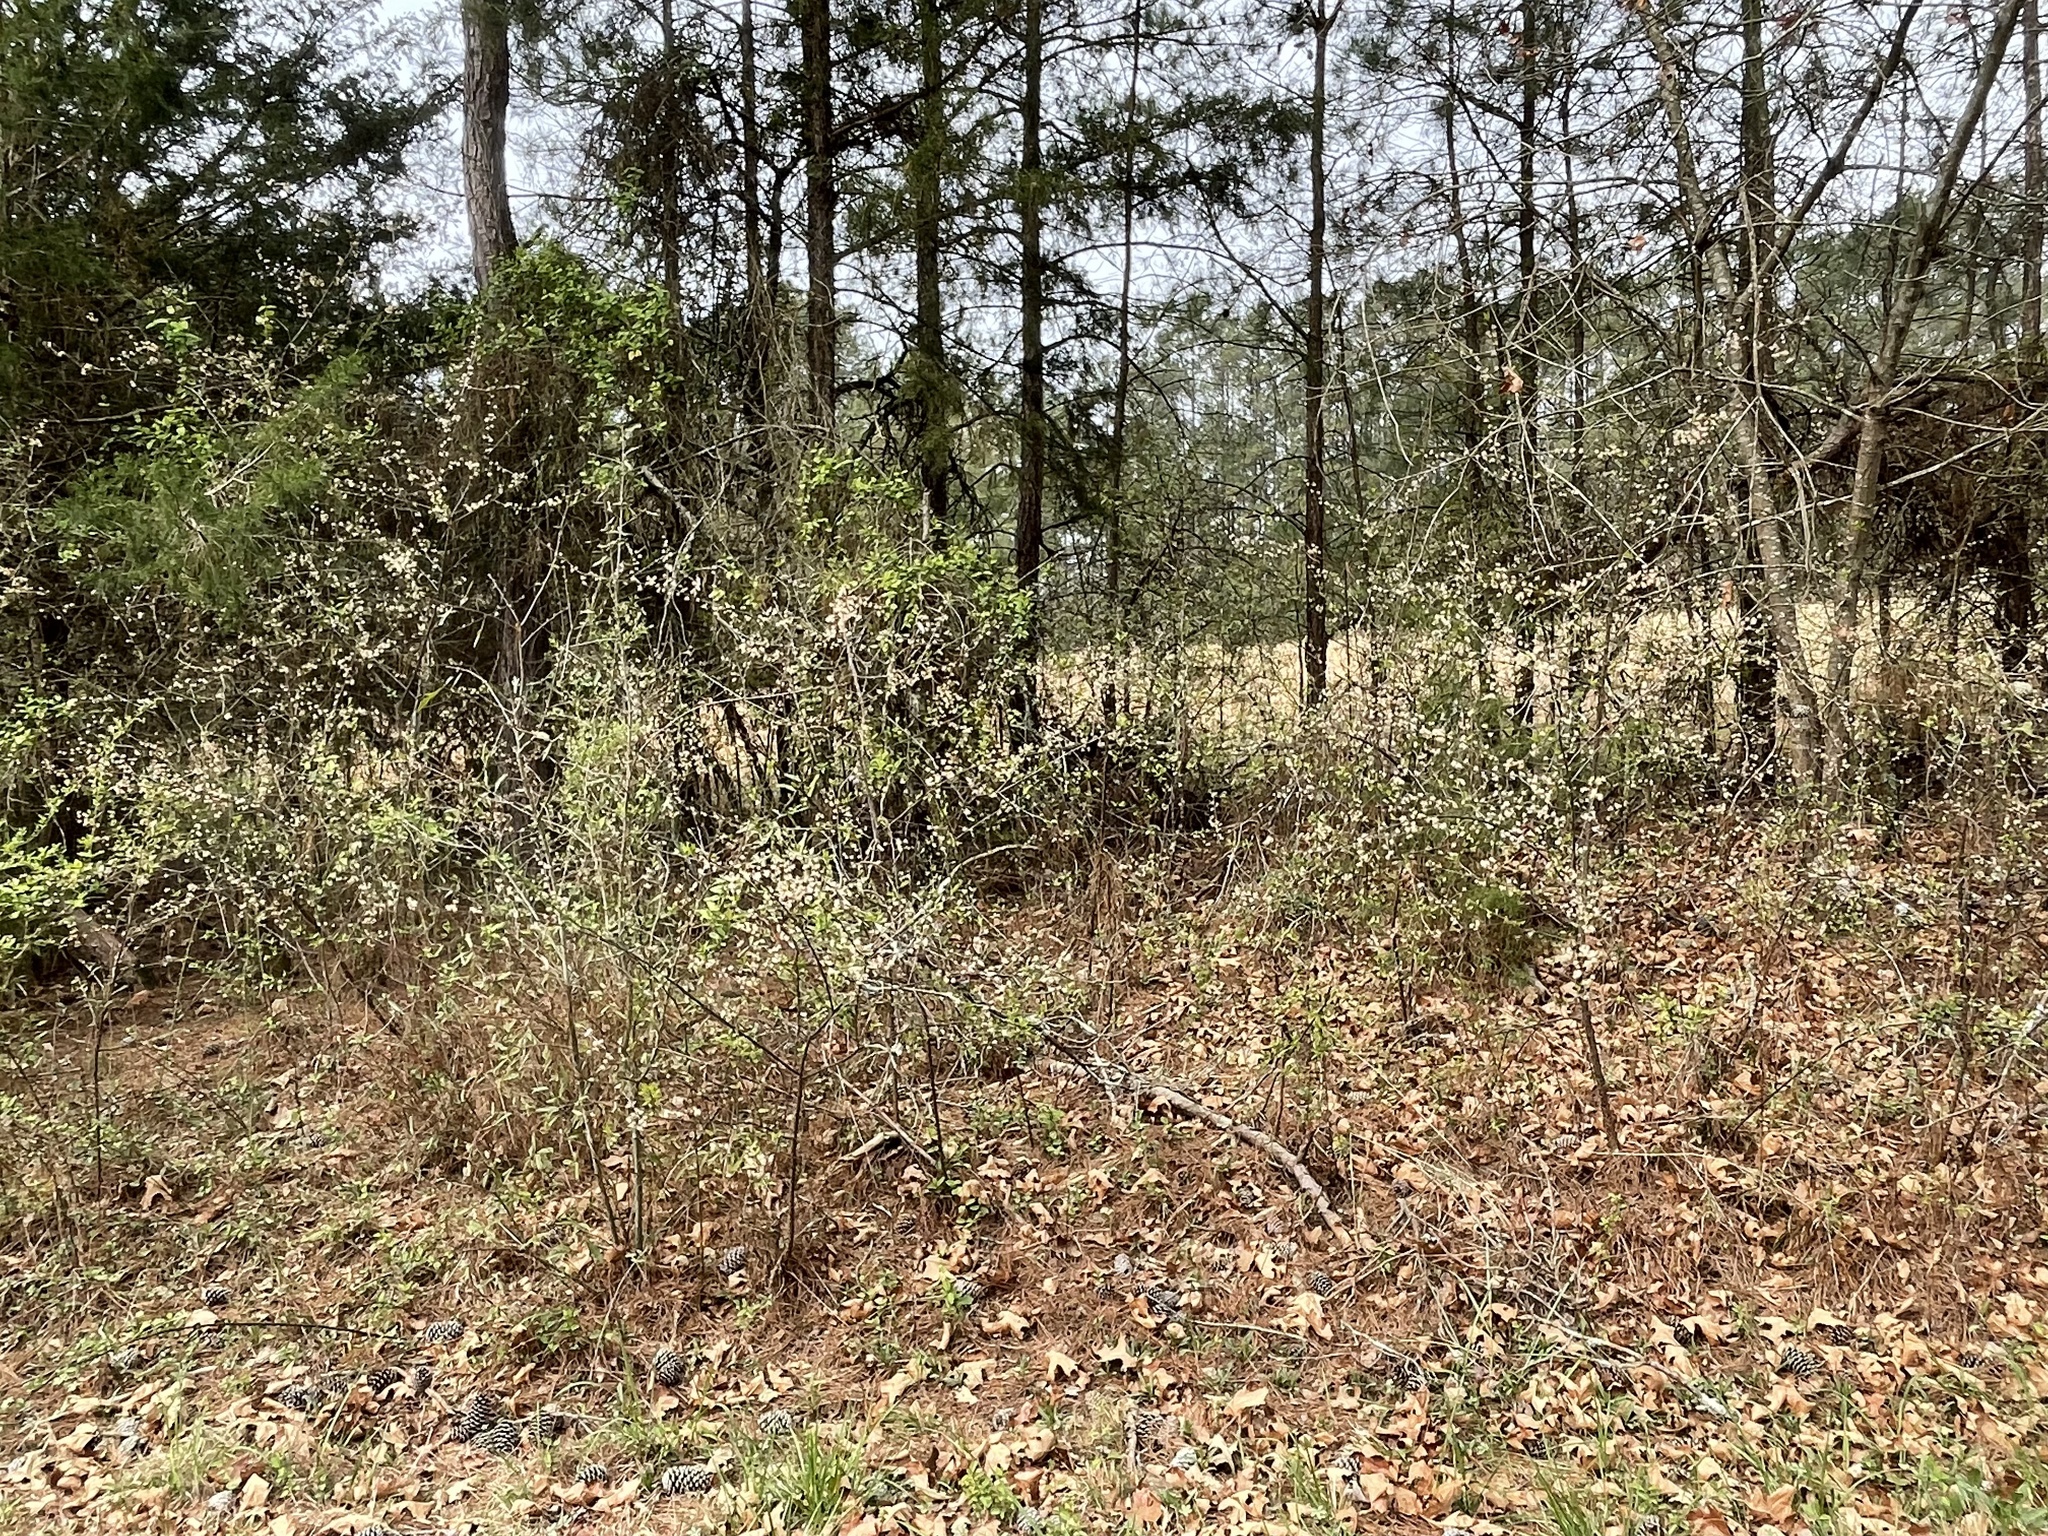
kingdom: Plantae
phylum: Tracheophyta
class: Magnoliopsida
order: Rosales
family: Rosaceae
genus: Prunus
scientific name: Prunus angustifolia
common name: Cherokee plum
